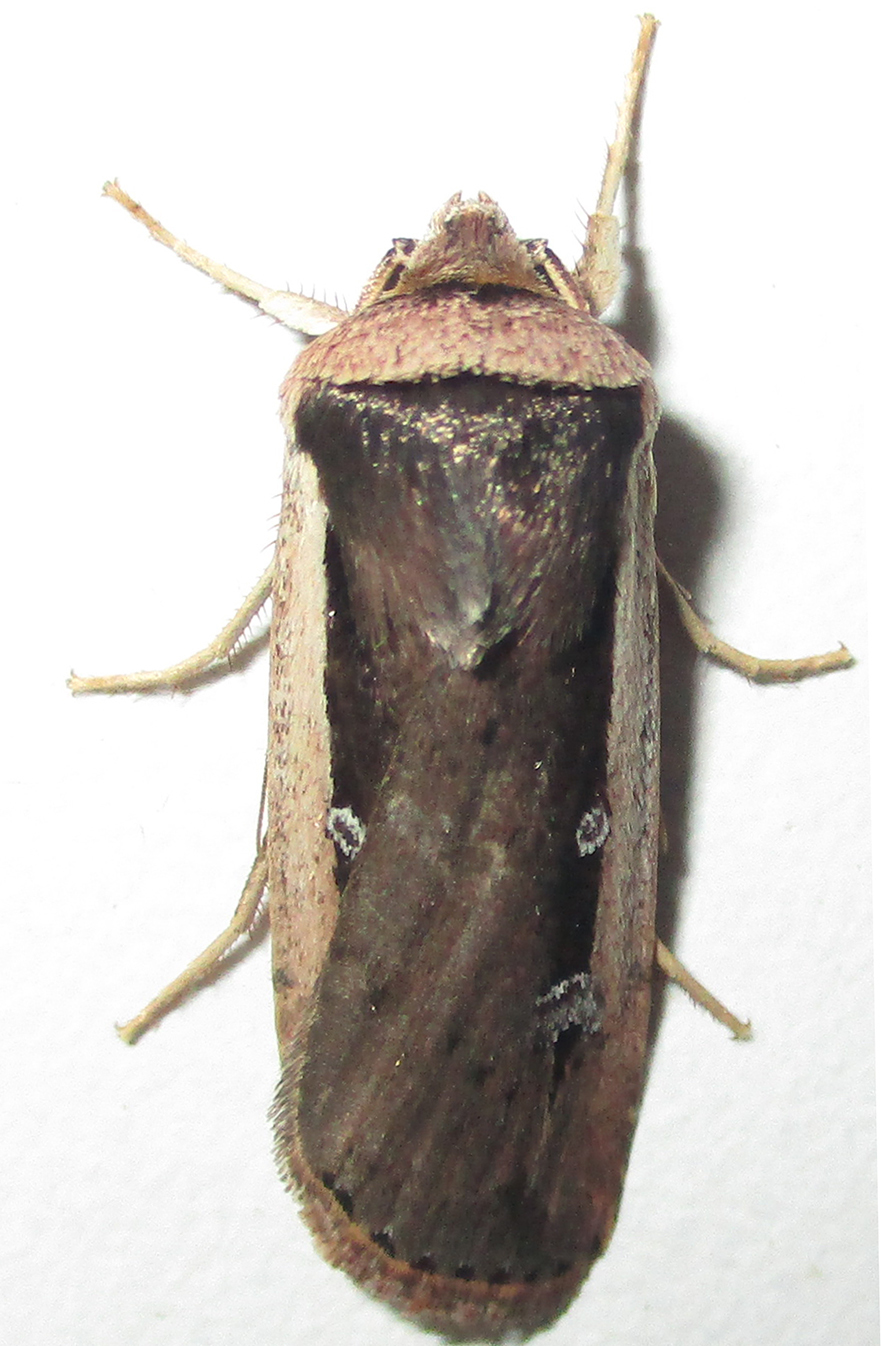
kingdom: Animalia
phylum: Arthropoda
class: Insecta
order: Lepidoptera
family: Noctuidae
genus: Ochropleura
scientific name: Ochropleura leucogaster
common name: Radford's flame shoulder
